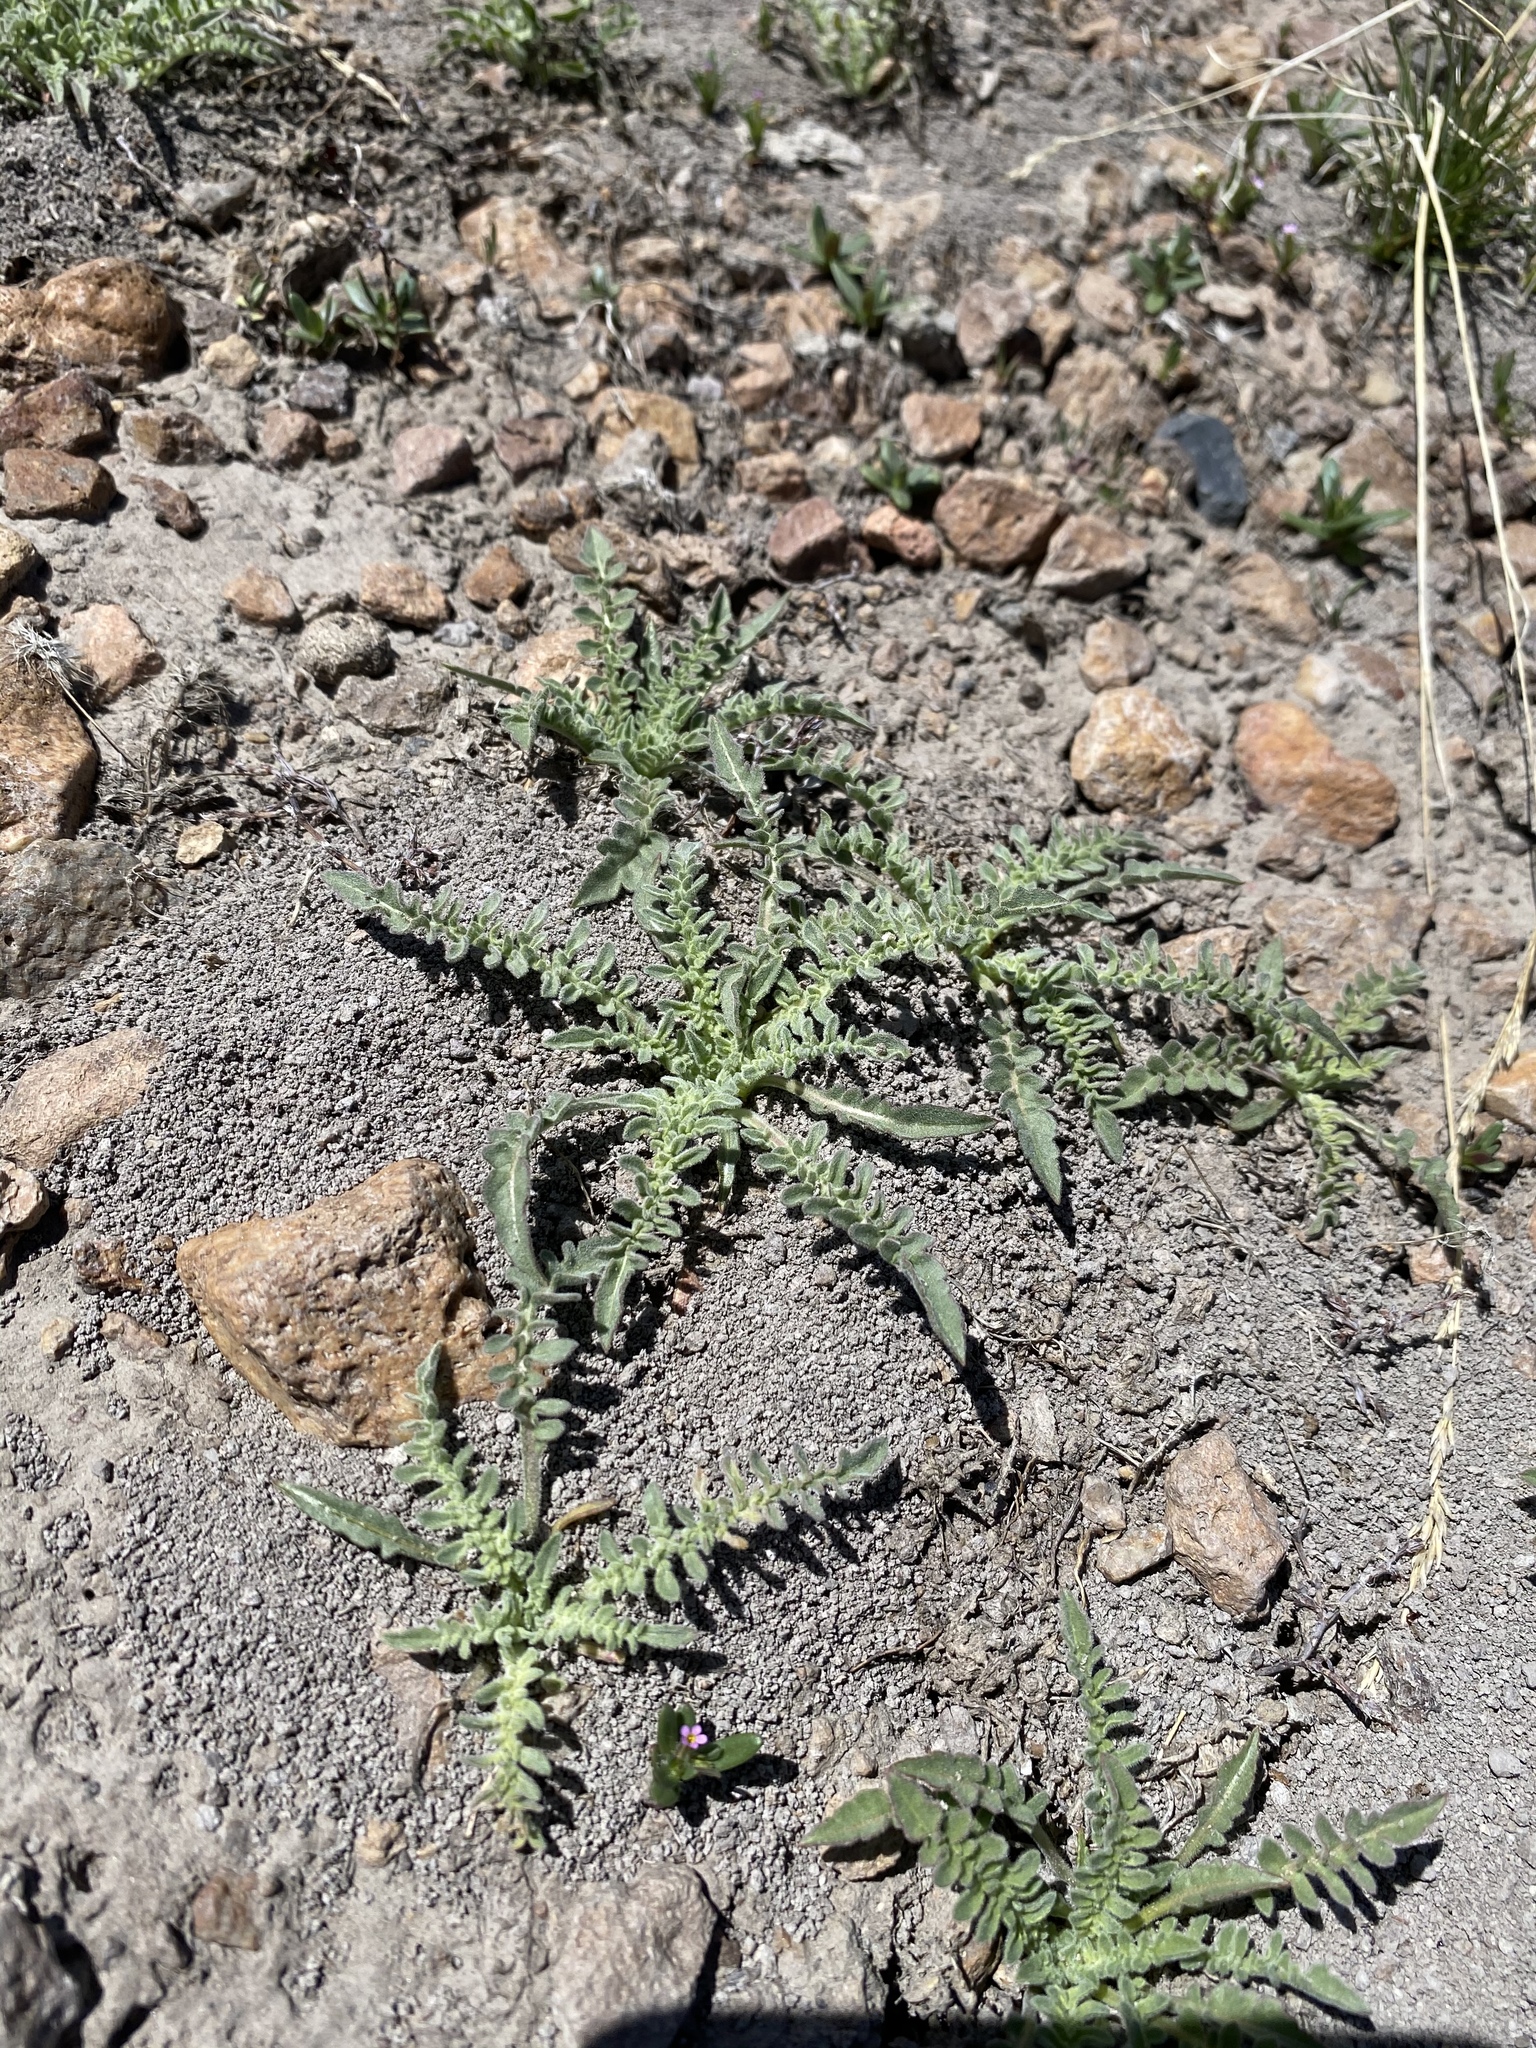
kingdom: Plantae
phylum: Tracheophyta
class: Magnoliopsida
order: Myrtales
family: Onagraceae
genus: Taraxia
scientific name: Taraxia tanacetifolia
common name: Tansyleaf evening primrose
